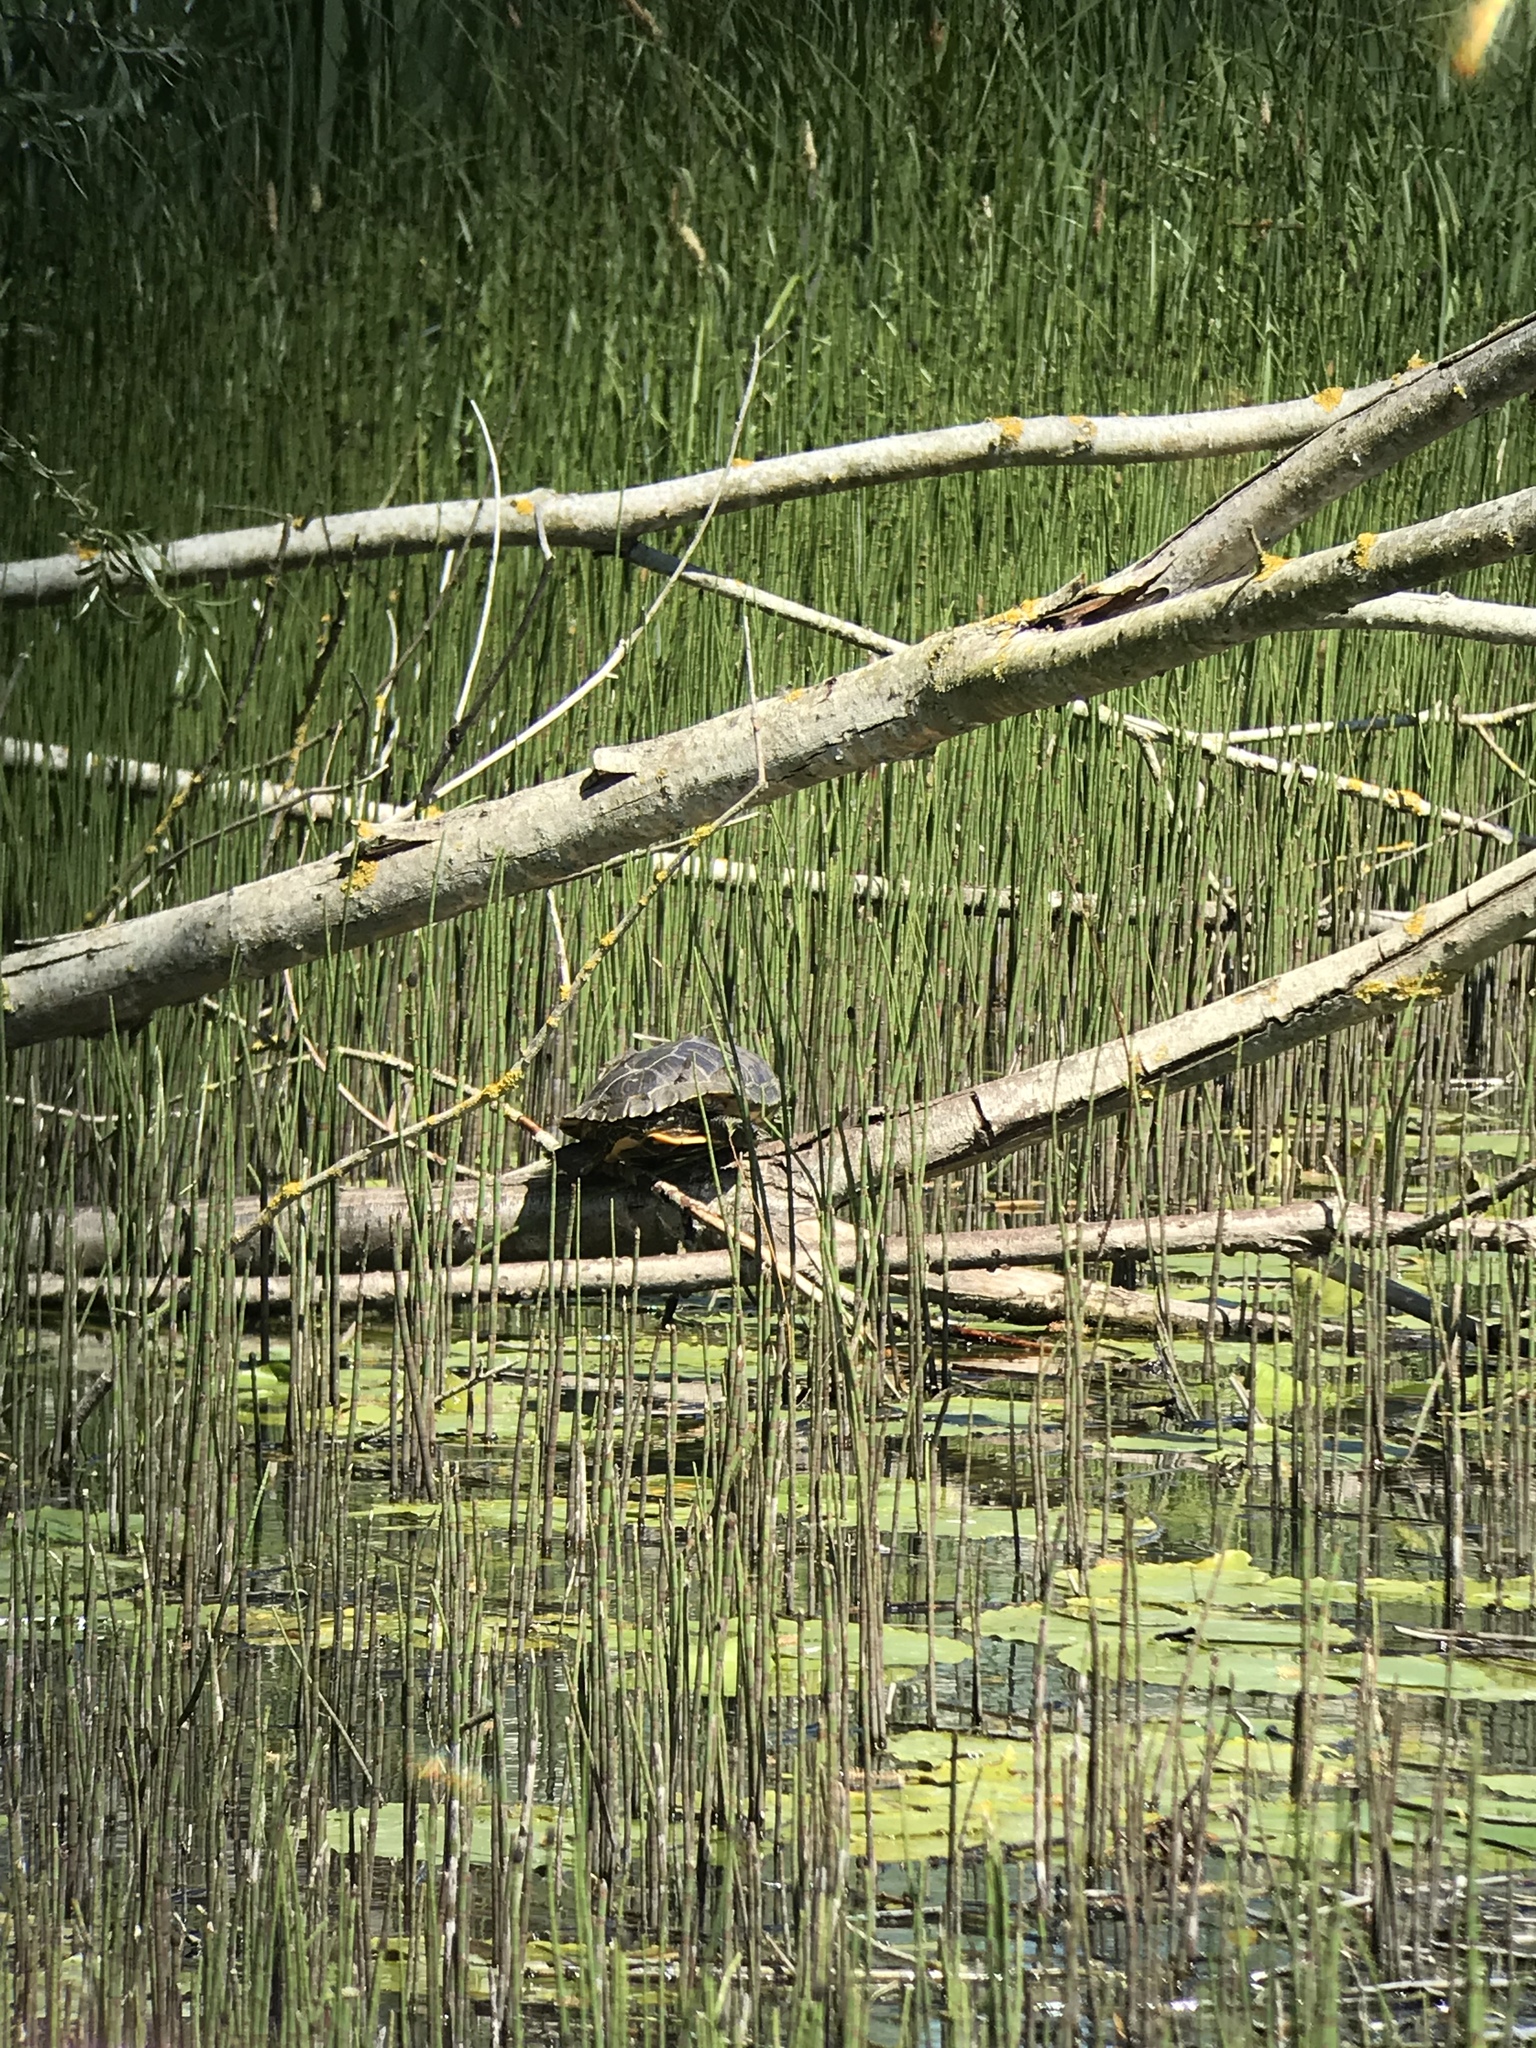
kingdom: Animalia
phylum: Chordata
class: Testudines
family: Emydidae
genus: Trachemys
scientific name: Trachemys scripta
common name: Slider
